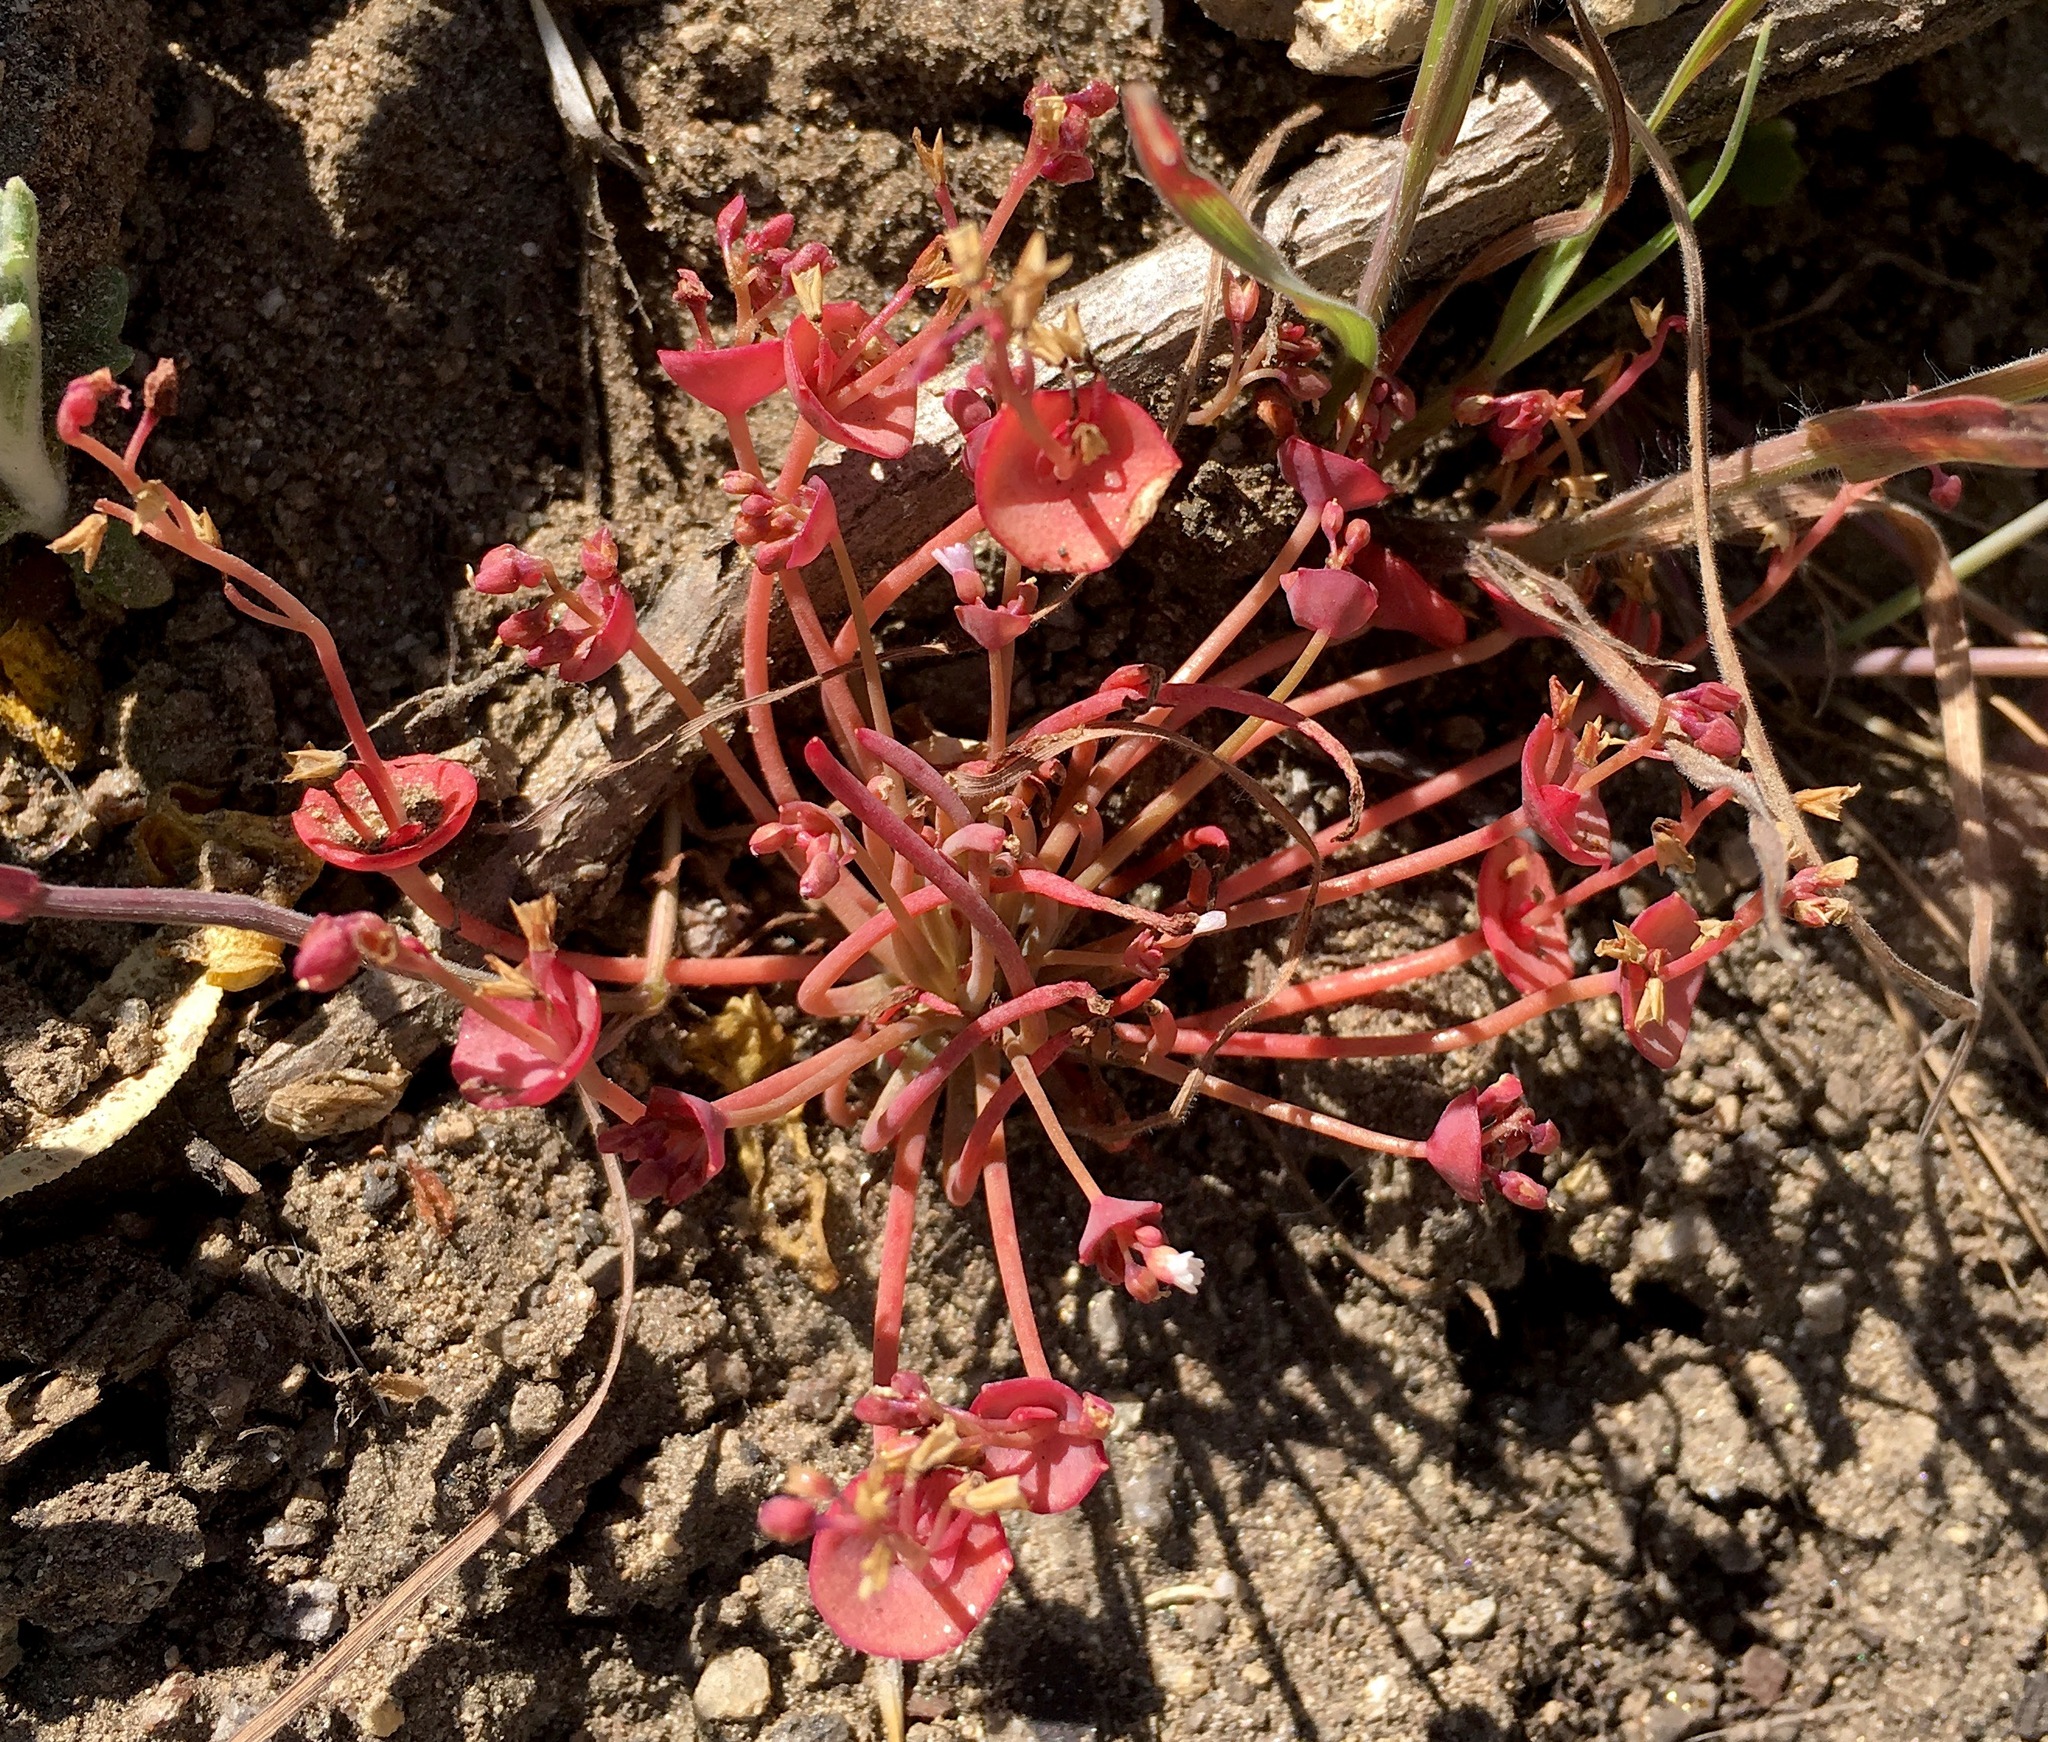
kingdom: Plantae
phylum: Tracheophyta
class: Magnoliopsida
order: Caryophyllales
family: Montiaceae
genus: Claytonia
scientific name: Claytonia parviflora
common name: Indian-lettuce
